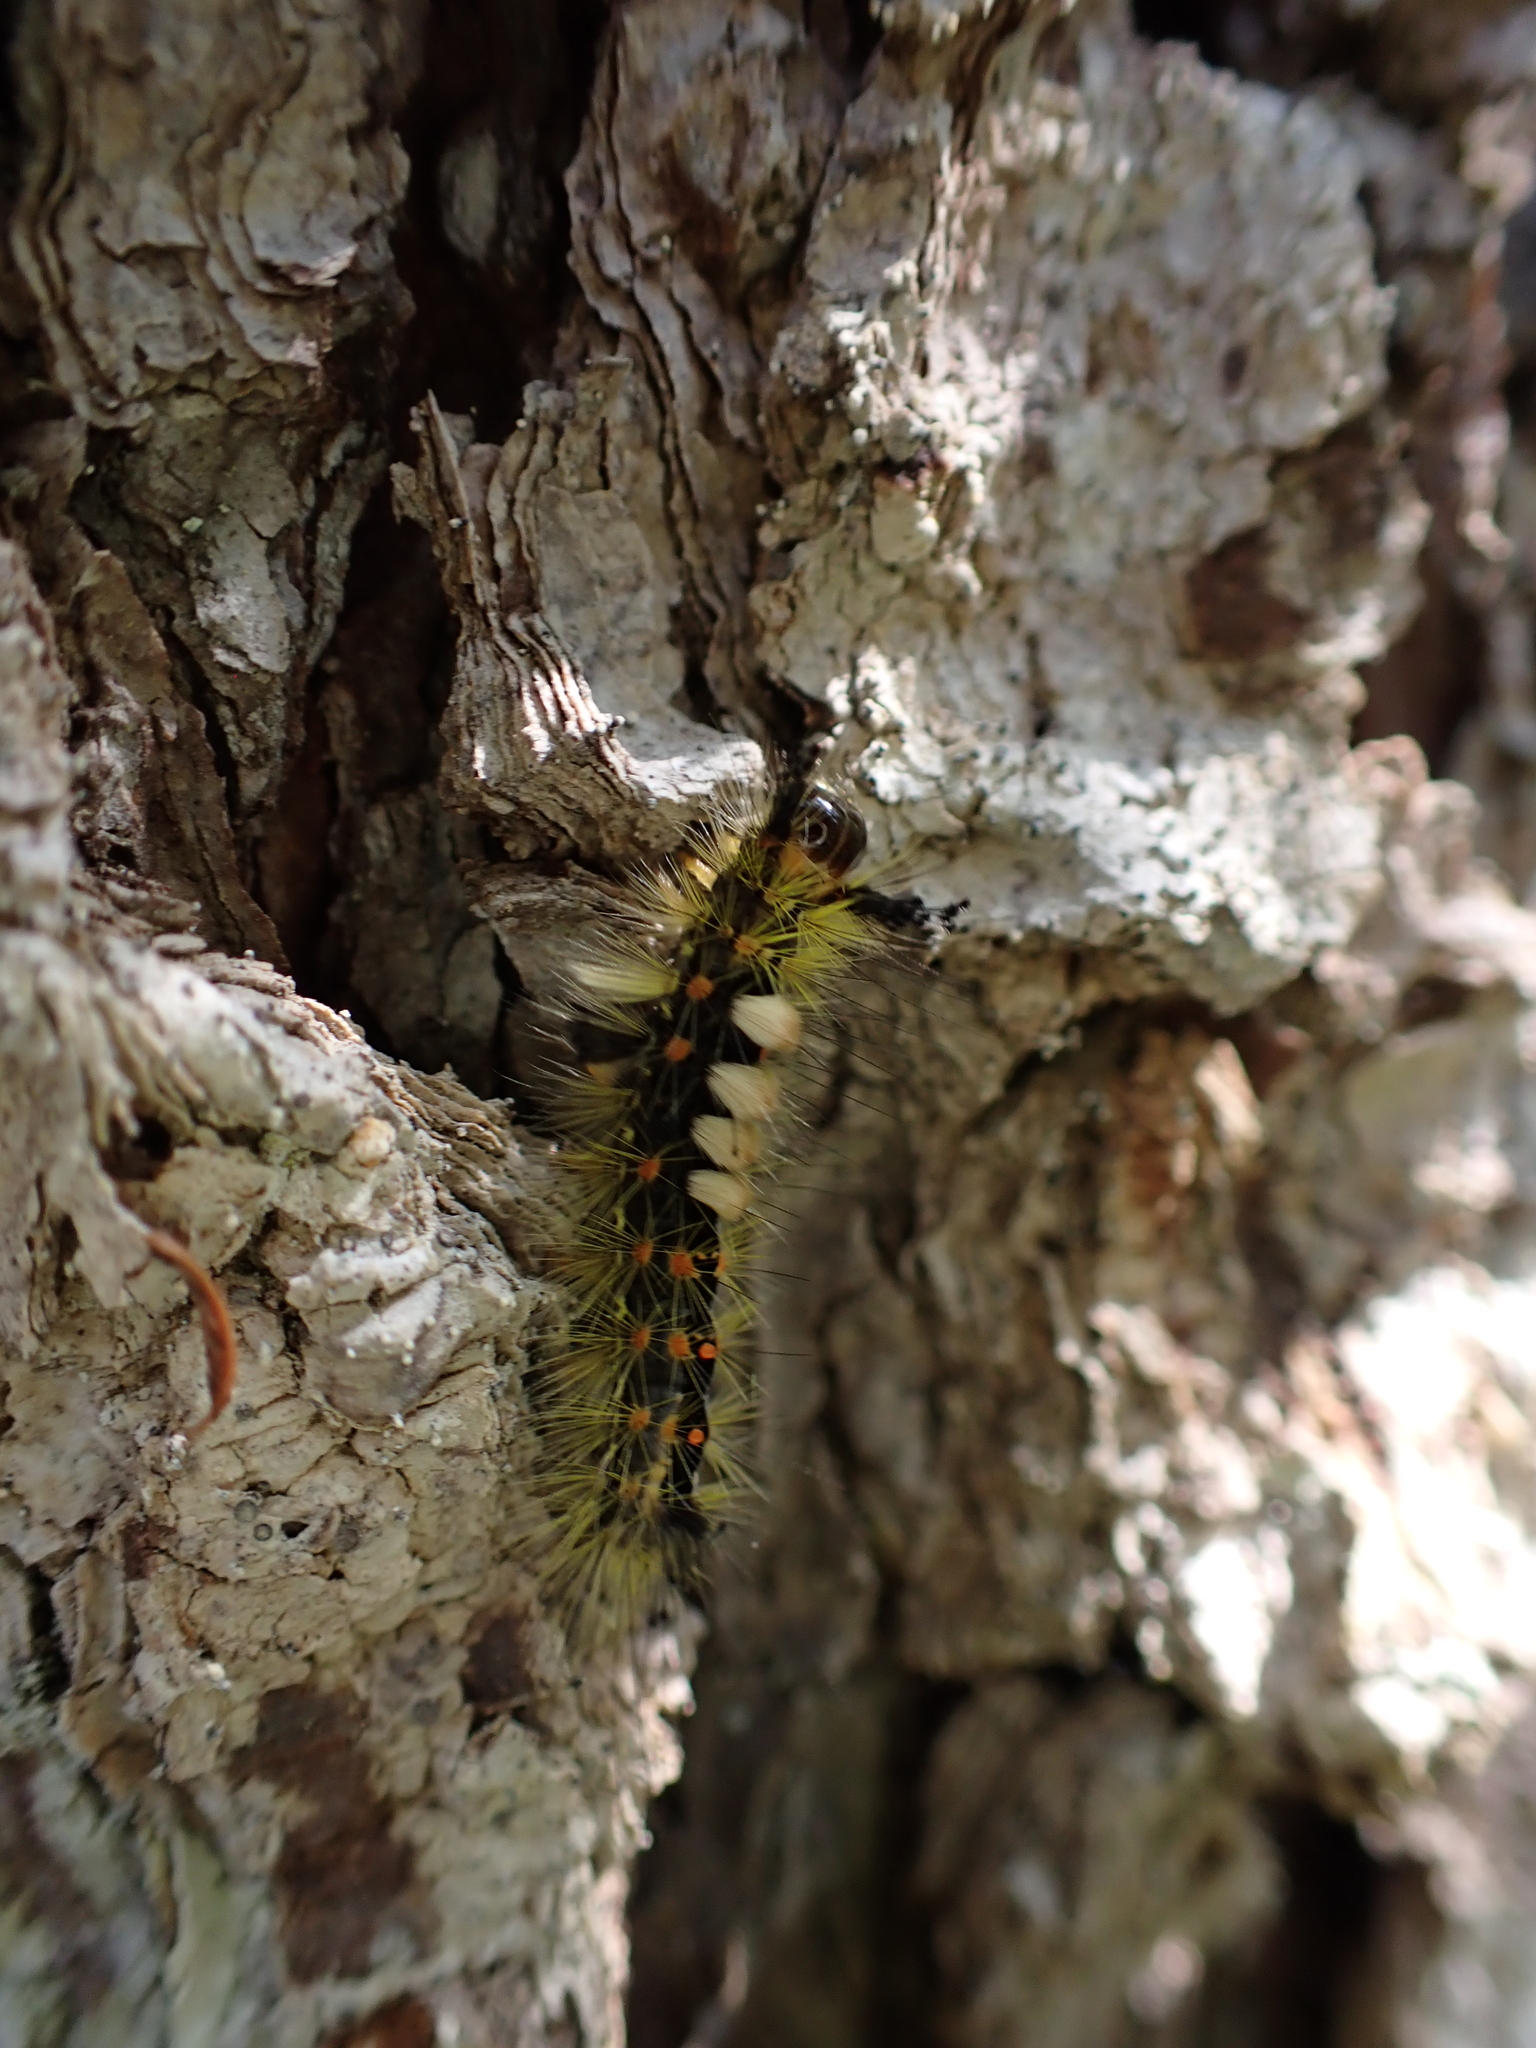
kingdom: Animalia
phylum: Arthropoda
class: Insecta
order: Lepidoptera
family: Erebidae
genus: Orgyia
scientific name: Orgyia antiqua
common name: Vapourer
